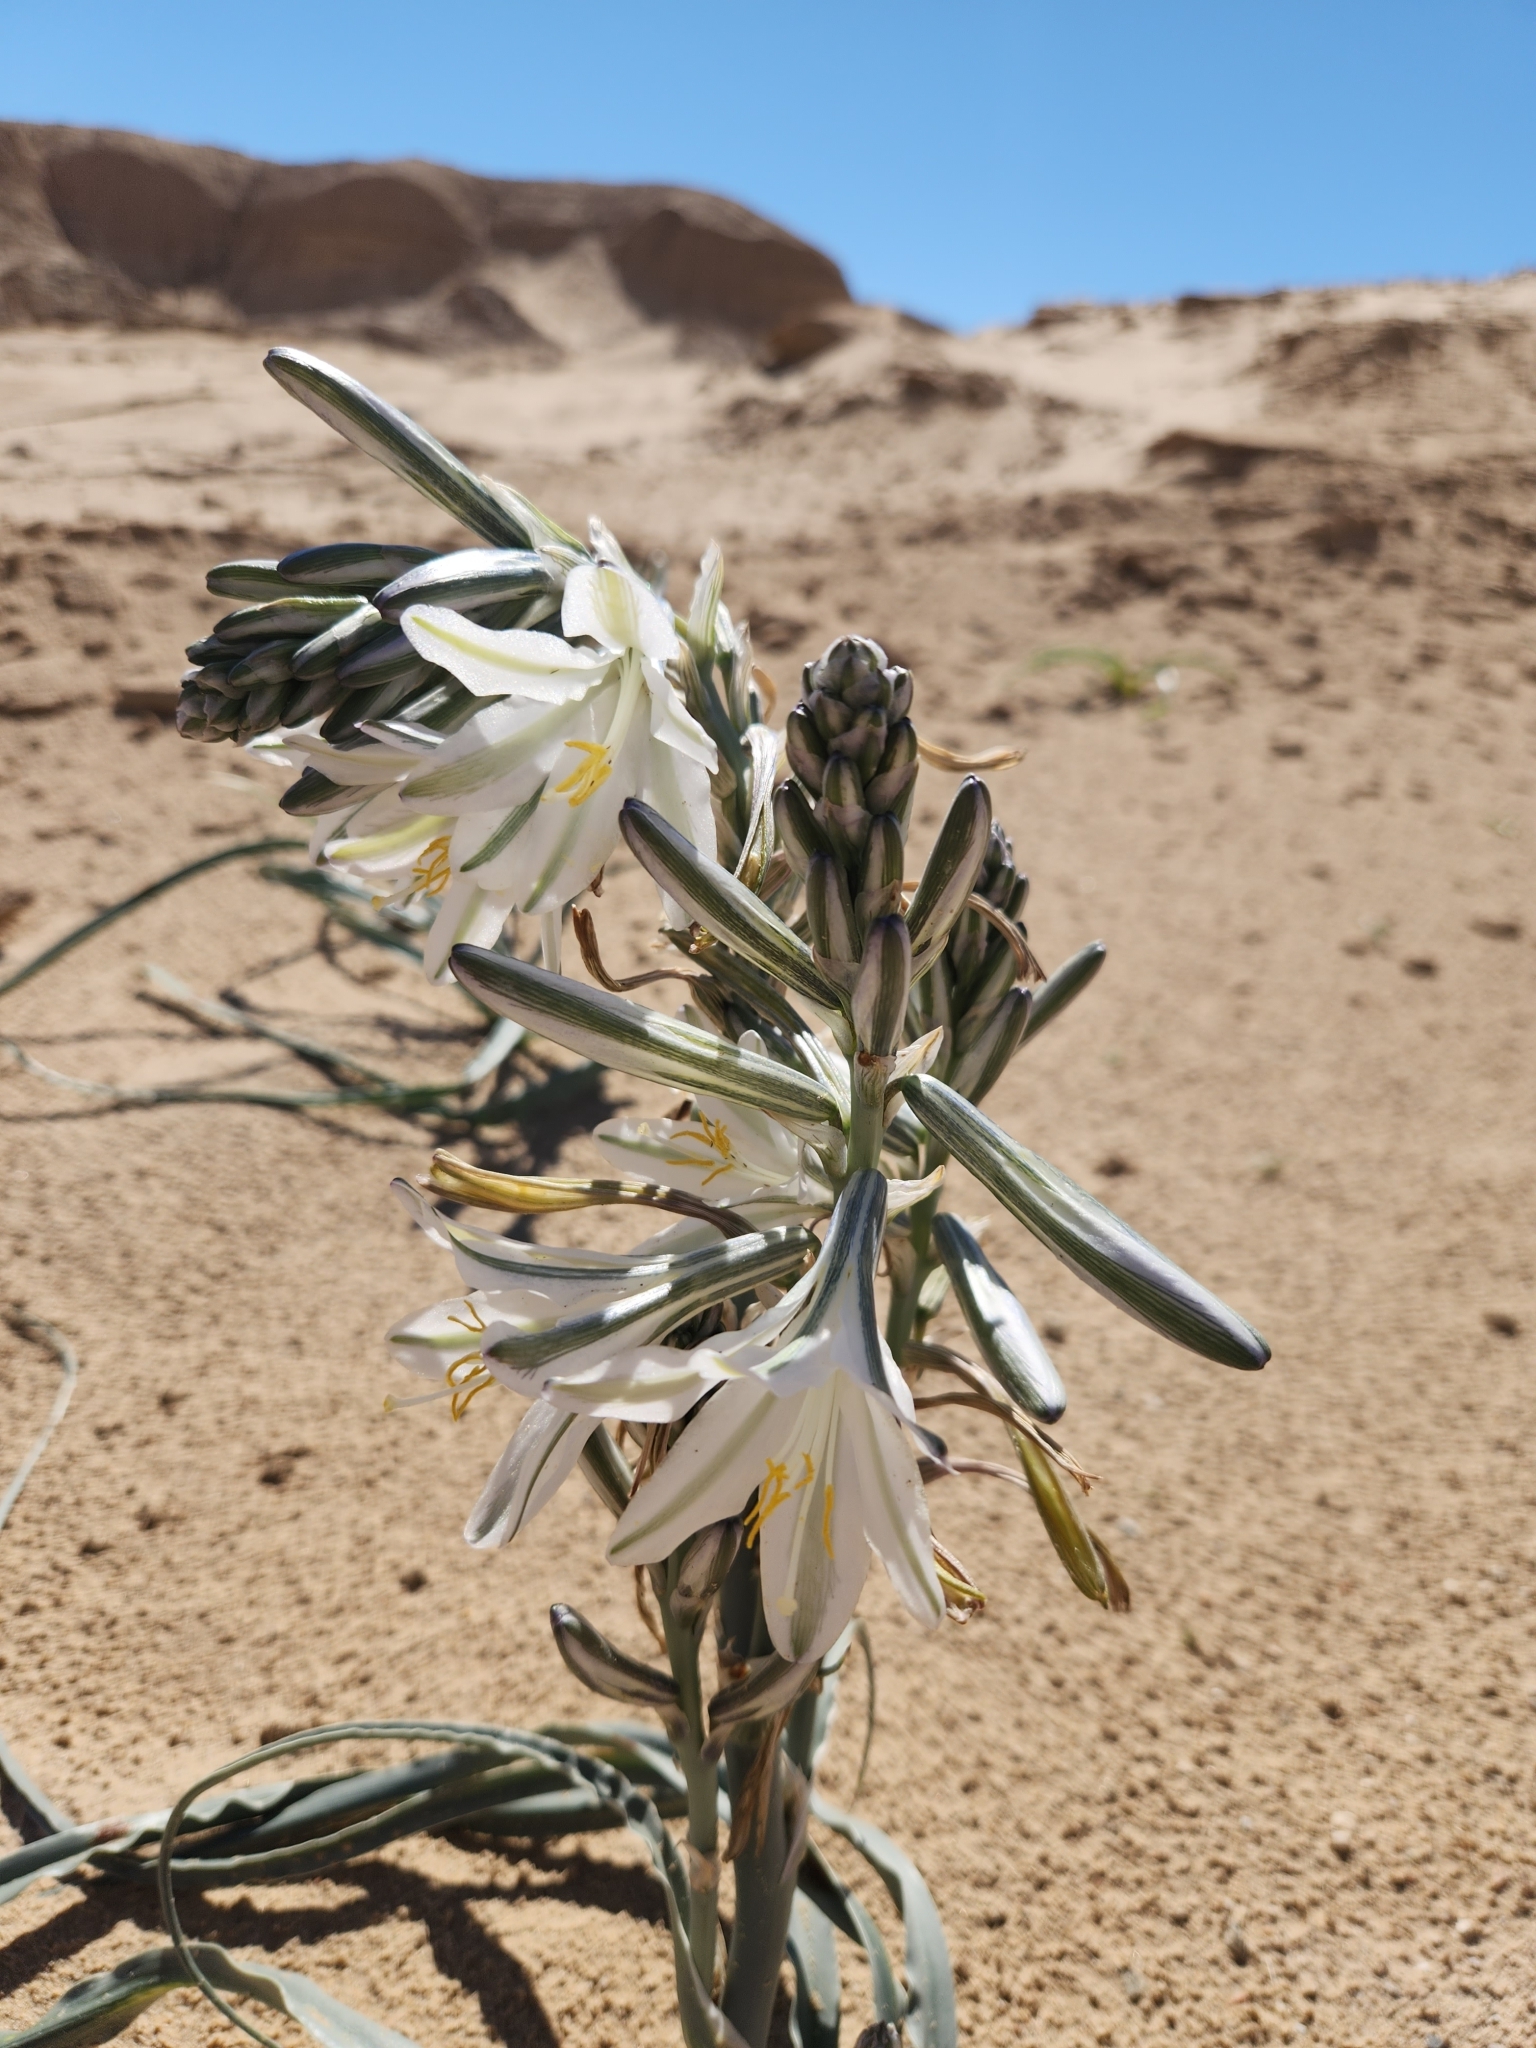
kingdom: Plantae
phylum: Tracheophyta
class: Liliopsida
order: Asparagales
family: Asparagaceae
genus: Hesperocallis
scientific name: Hesperocallis undulata
